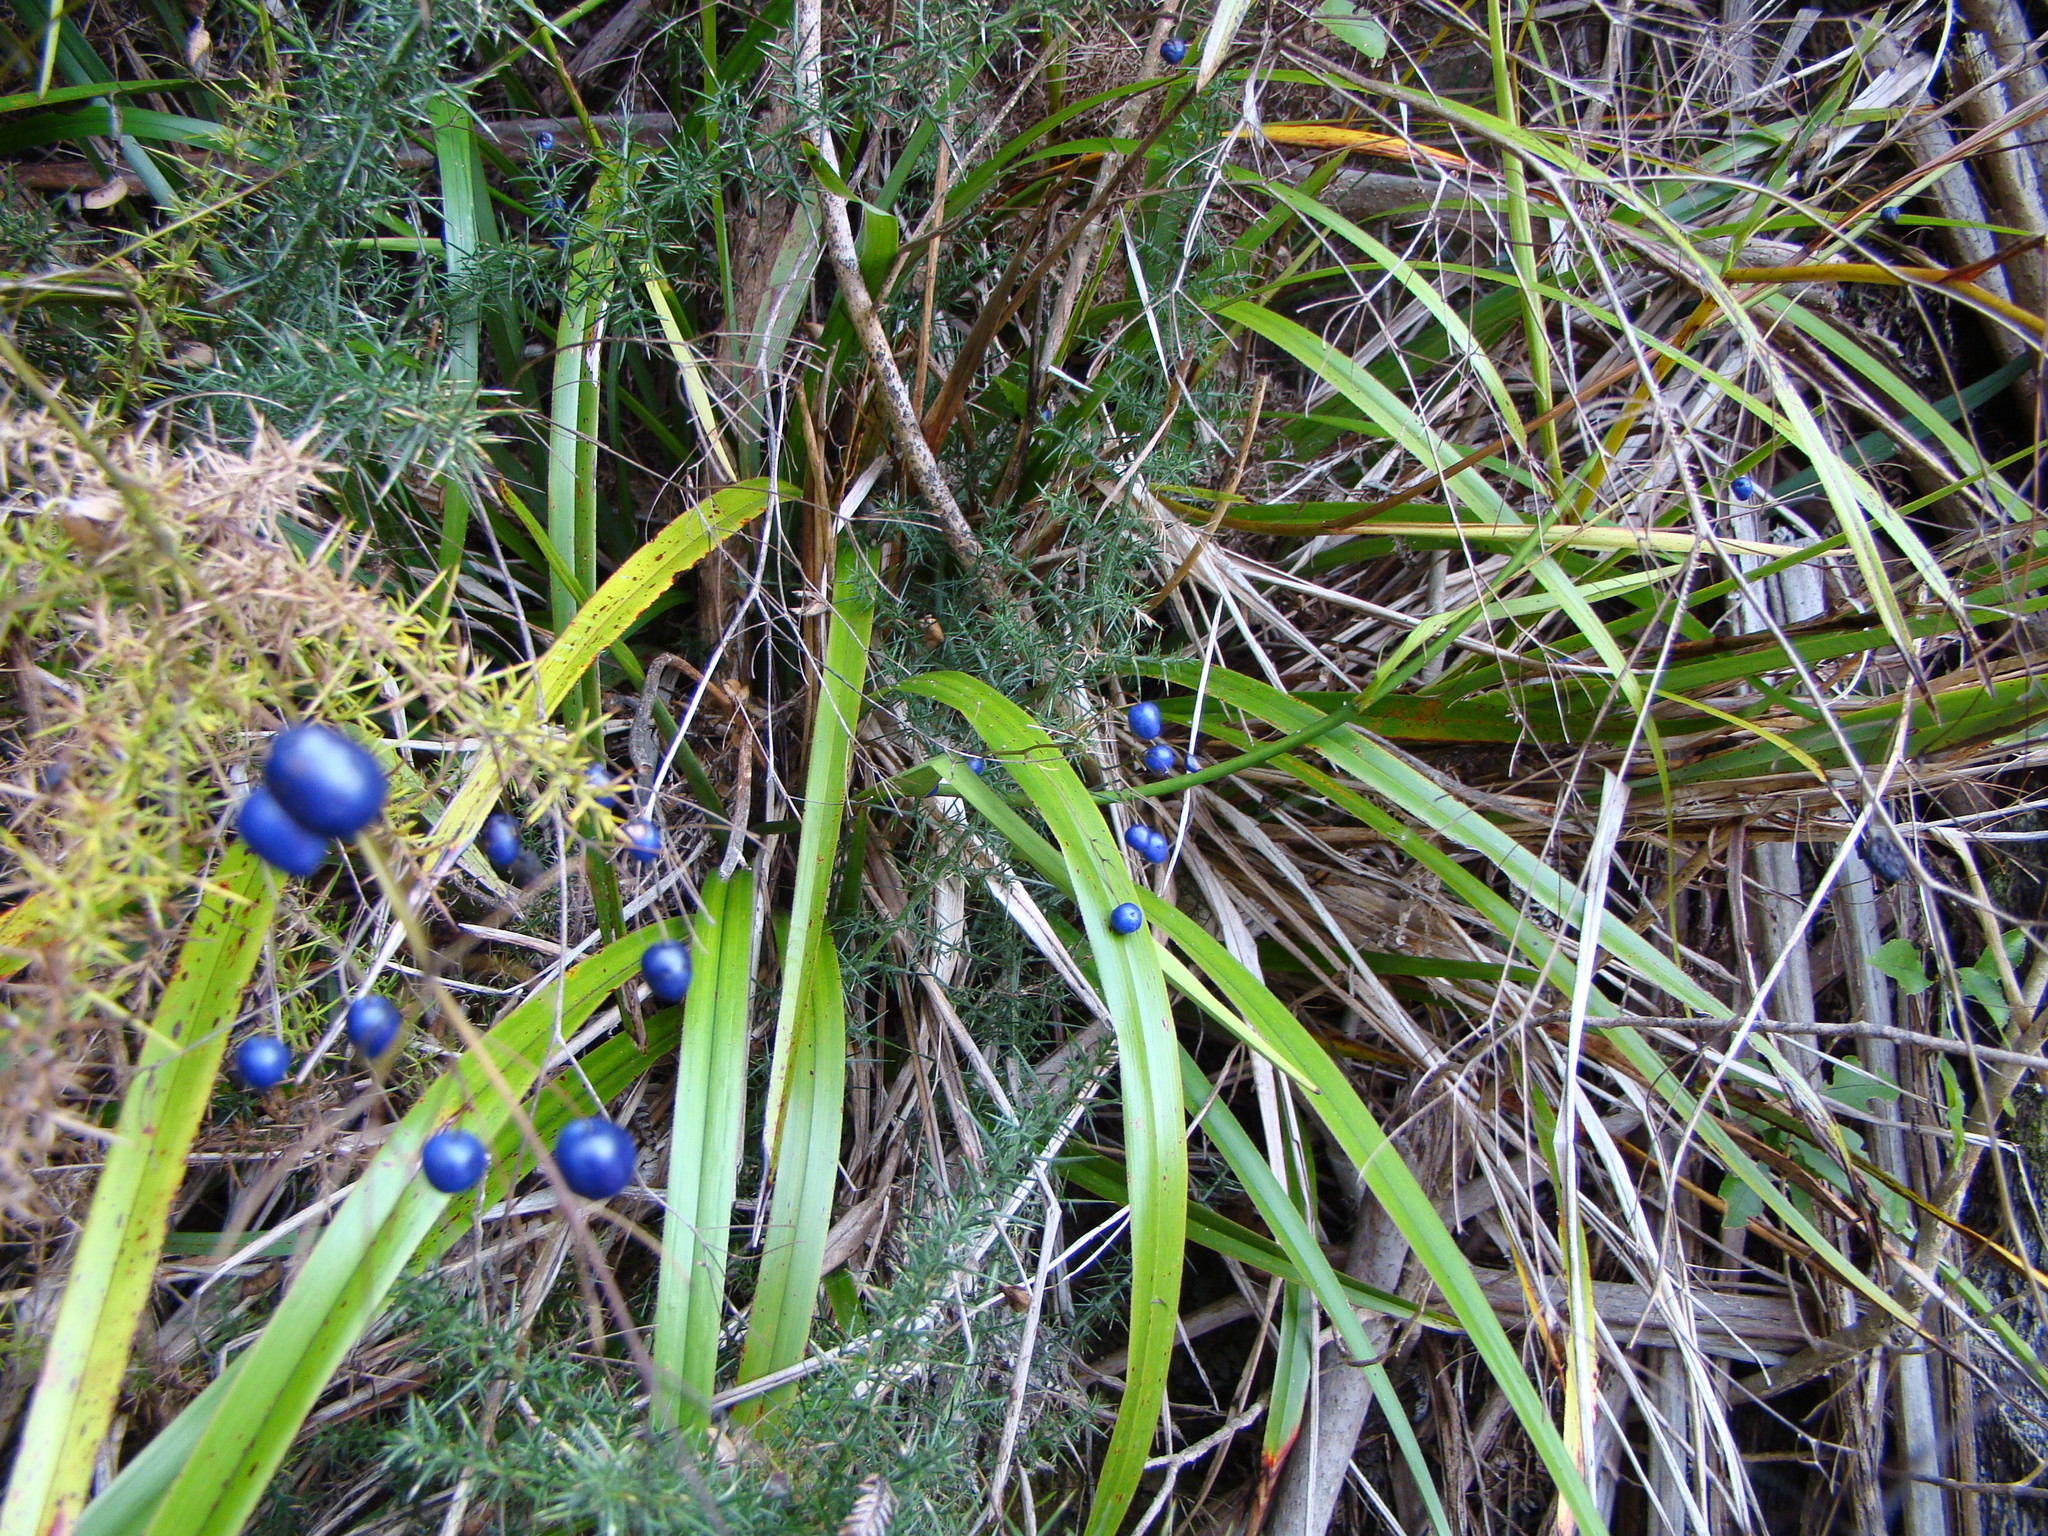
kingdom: Plantae
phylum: Tracheophyta
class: Liliopsida
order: Asparagales
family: Asphodelaceae
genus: Dianella
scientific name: Dianella nigra
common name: New zealand-blueberry
